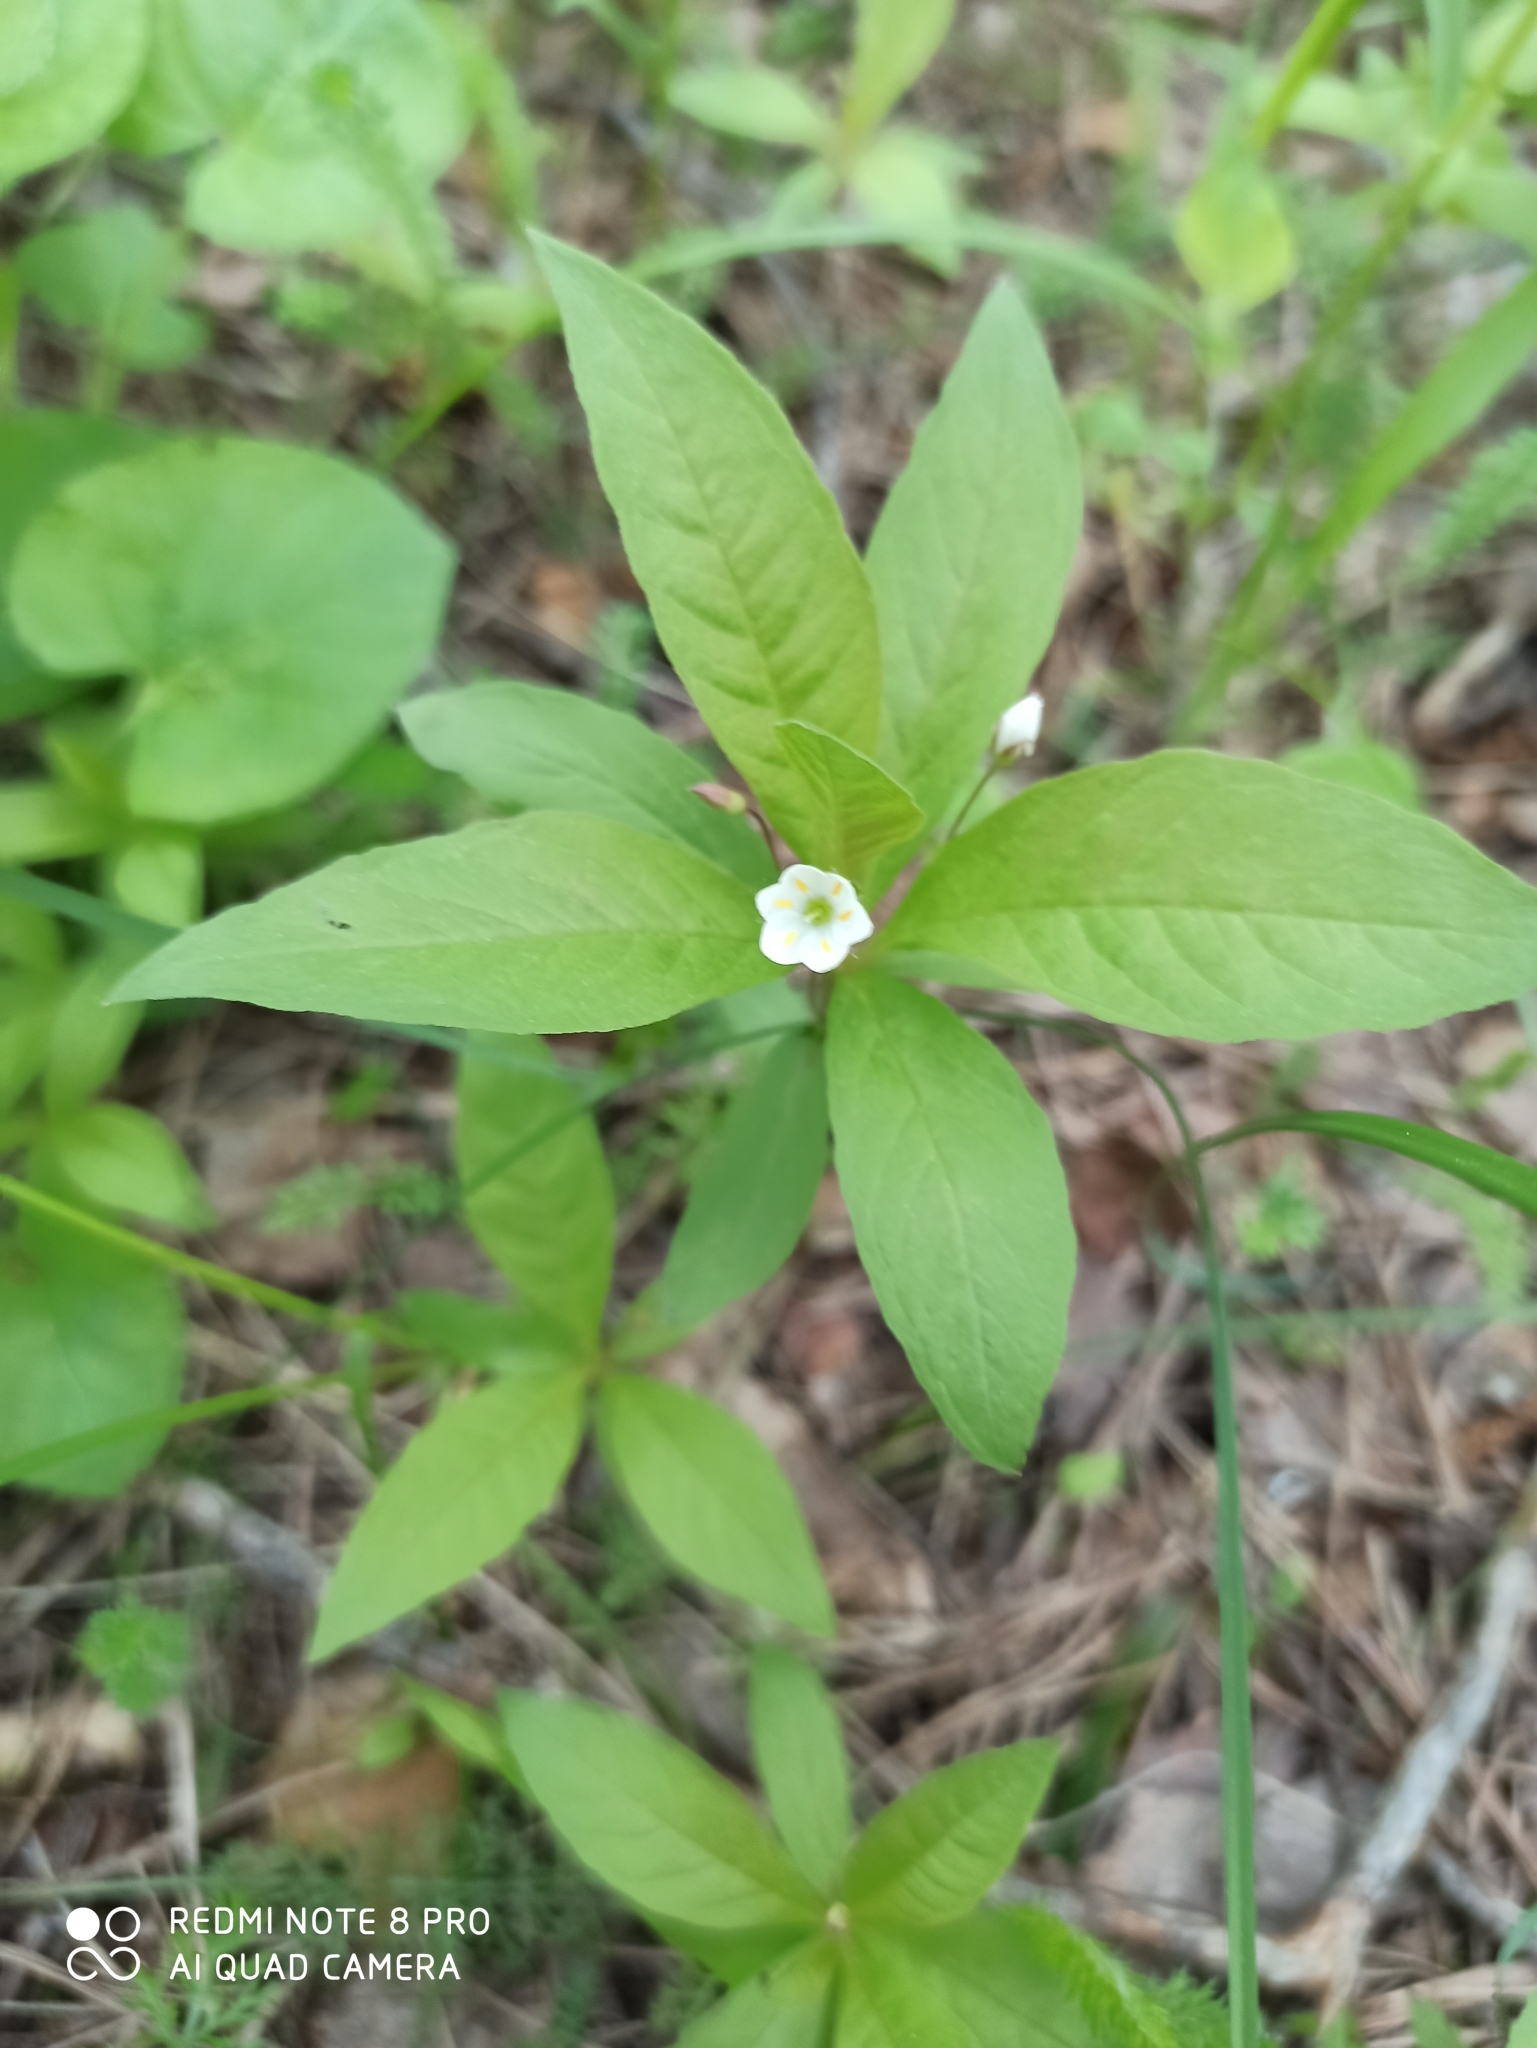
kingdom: Plantae
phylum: Tracheophyta
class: Magnoliopsida
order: Ericales
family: Primulaceae
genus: Lysimachia
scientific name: Lysimachia europaea
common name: Arctic starflower
